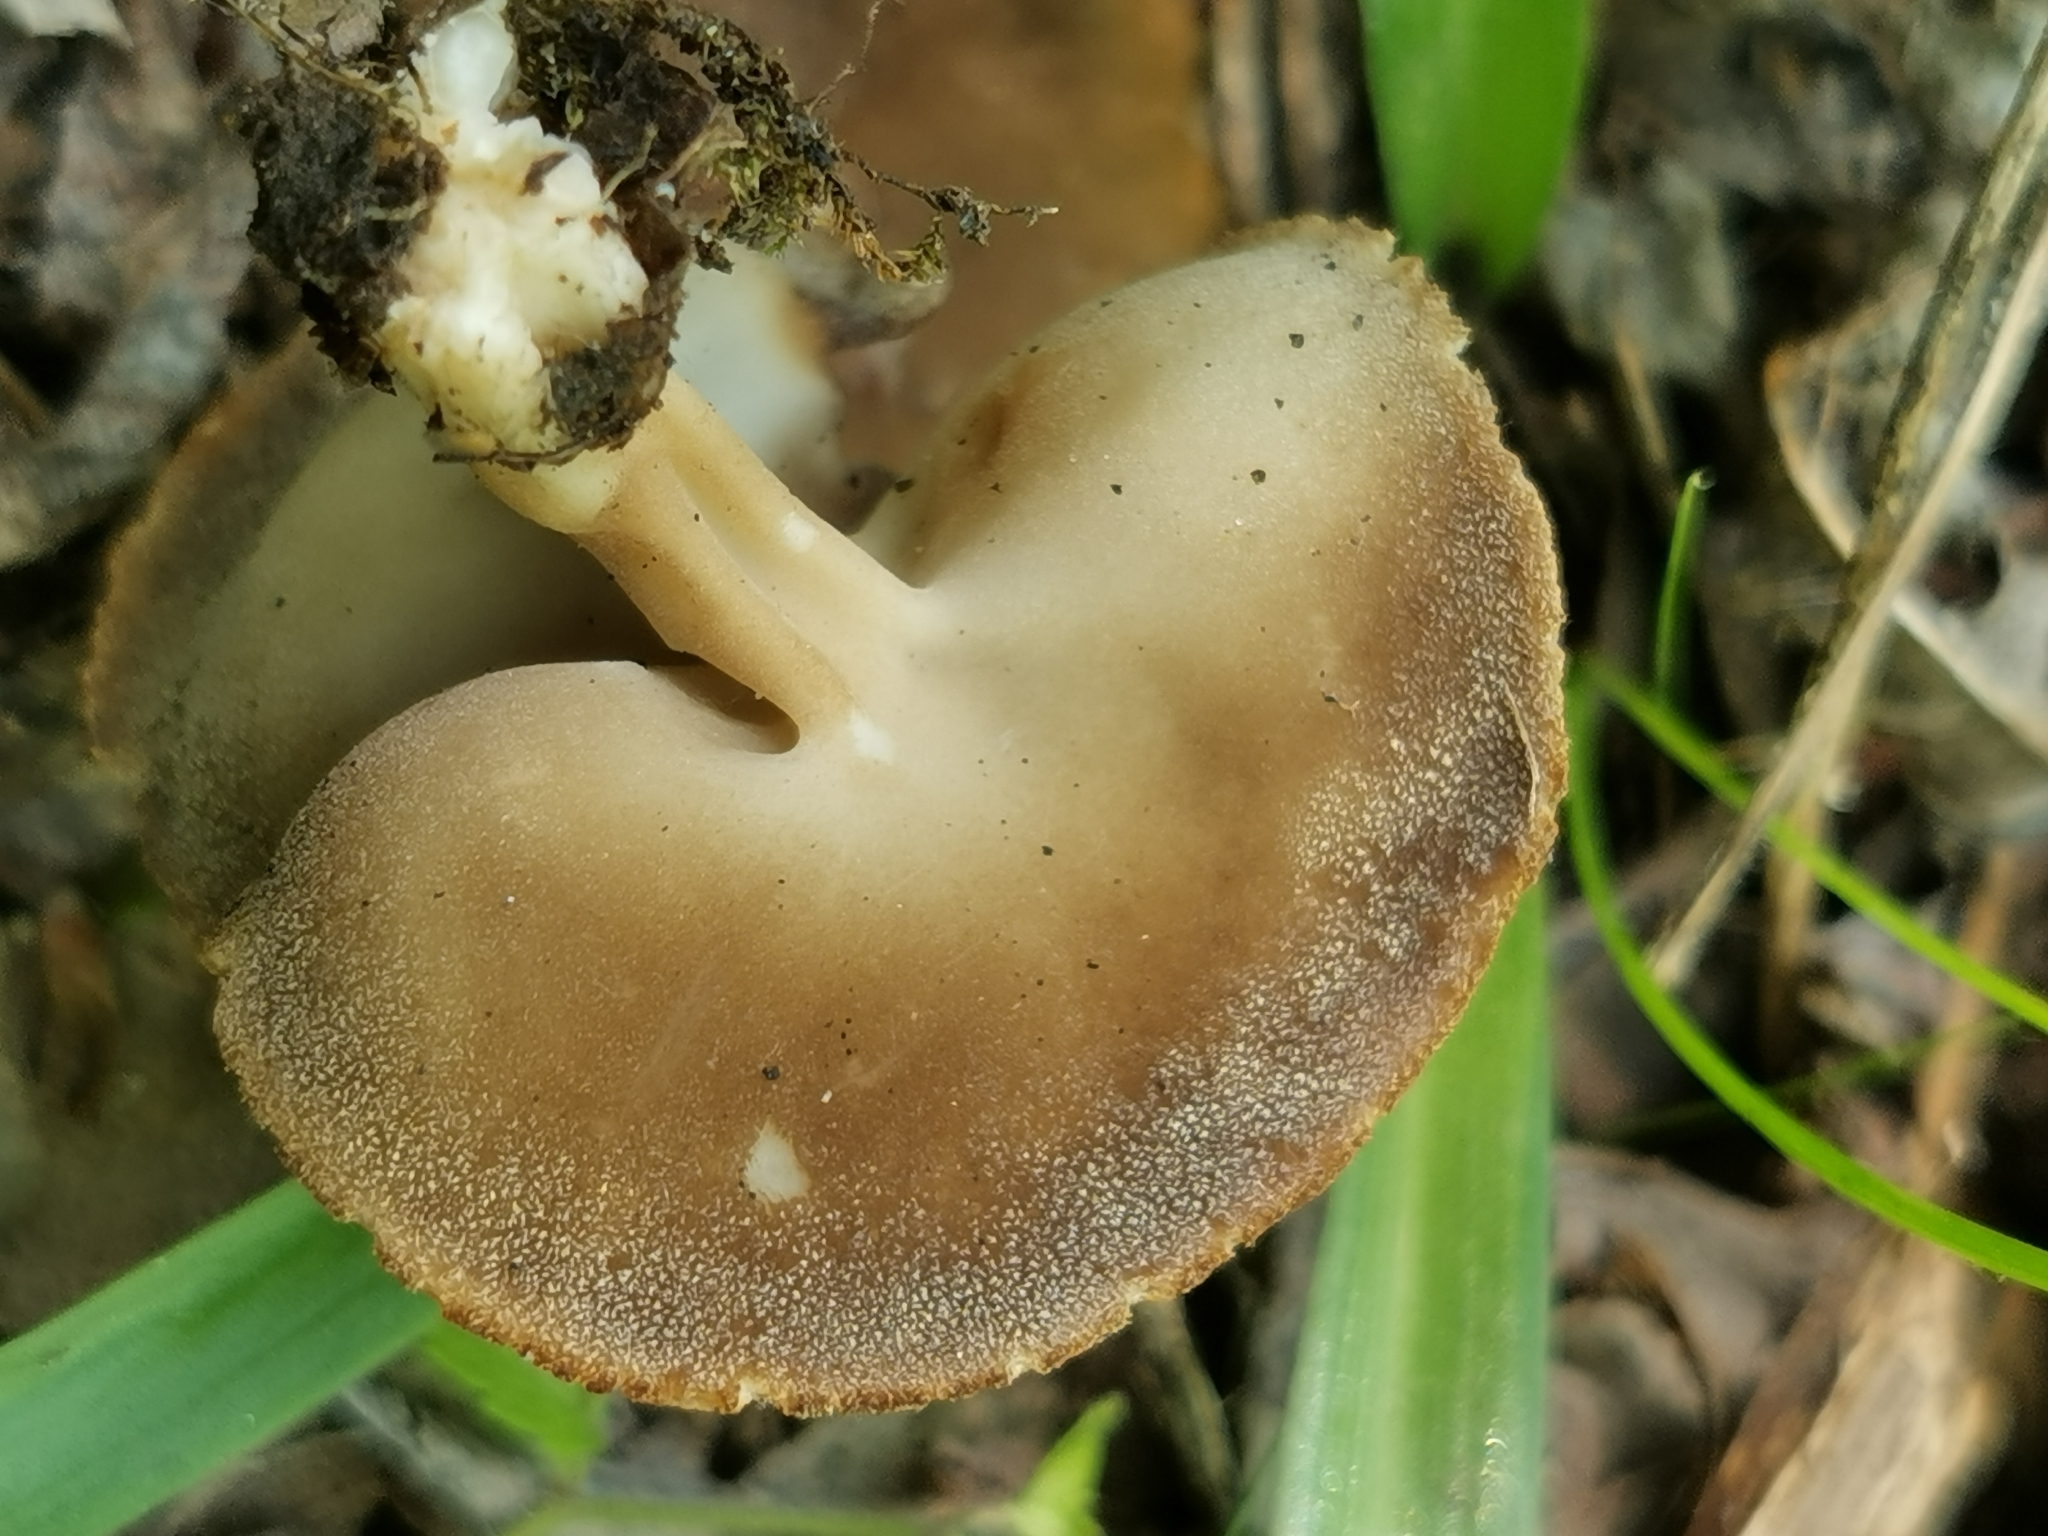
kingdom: Fungi
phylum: Ascomycota
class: Pezizomycetes
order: Pezizales
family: Helvellaceae
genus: Helvella
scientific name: Helvella acetabulum
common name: Vinegar cup
